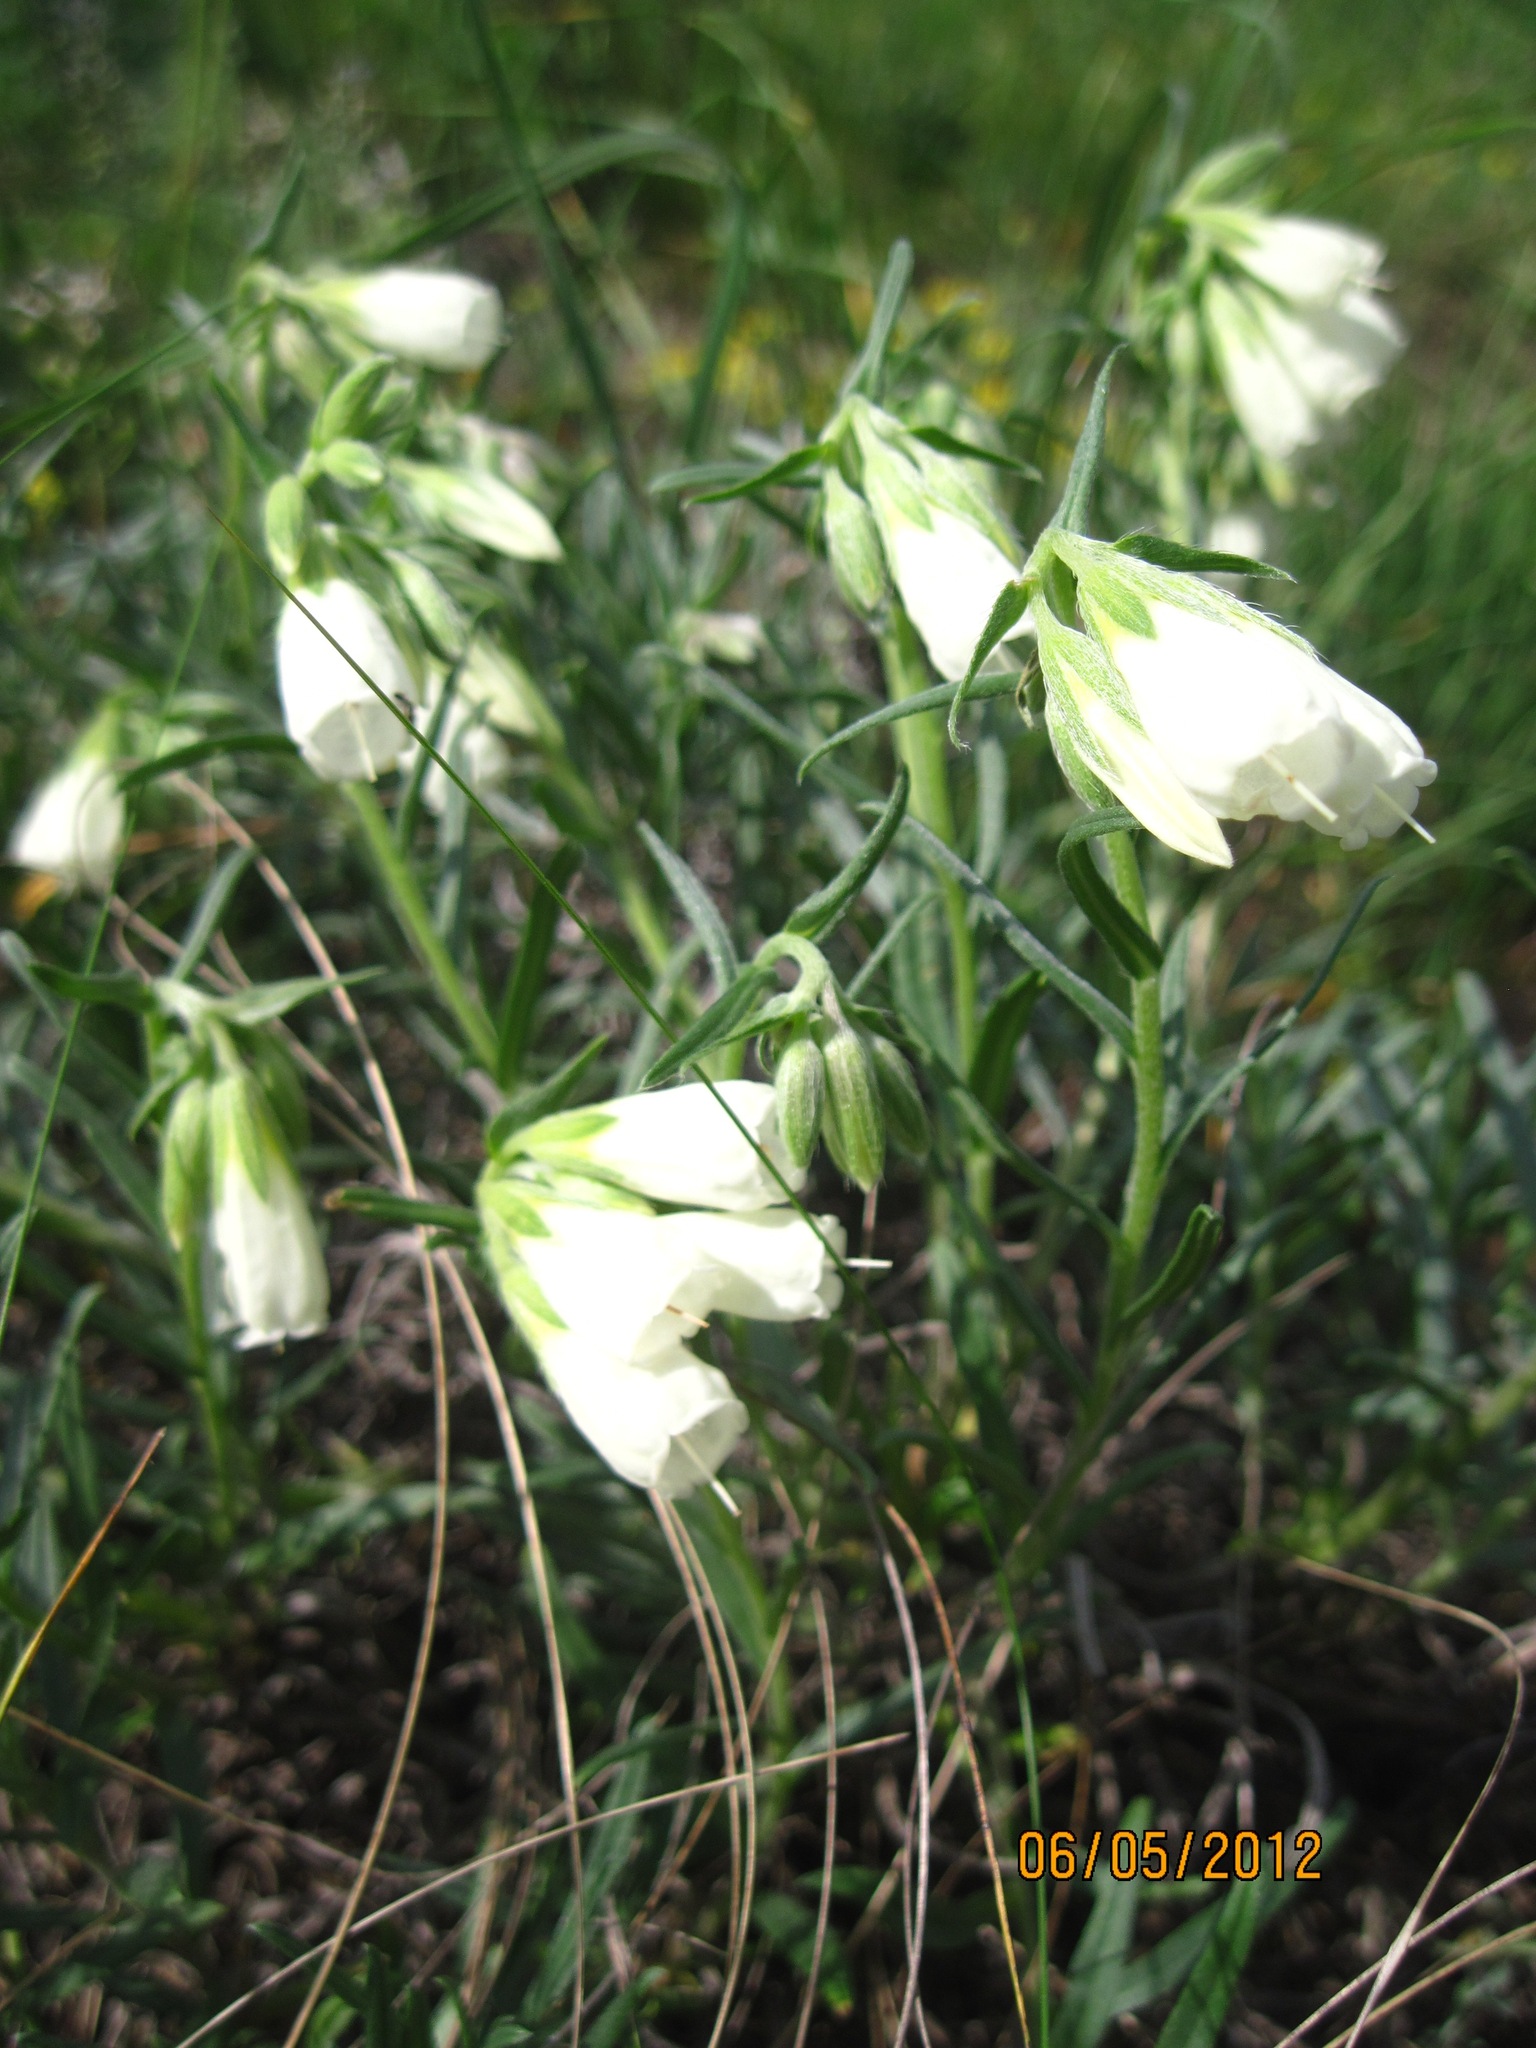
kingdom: Plantae
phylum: Tracheophyta
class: Magnoliopsida
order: Boraginales
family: Boraginaceae
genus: Onosma
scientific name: Onosma simplicissima
